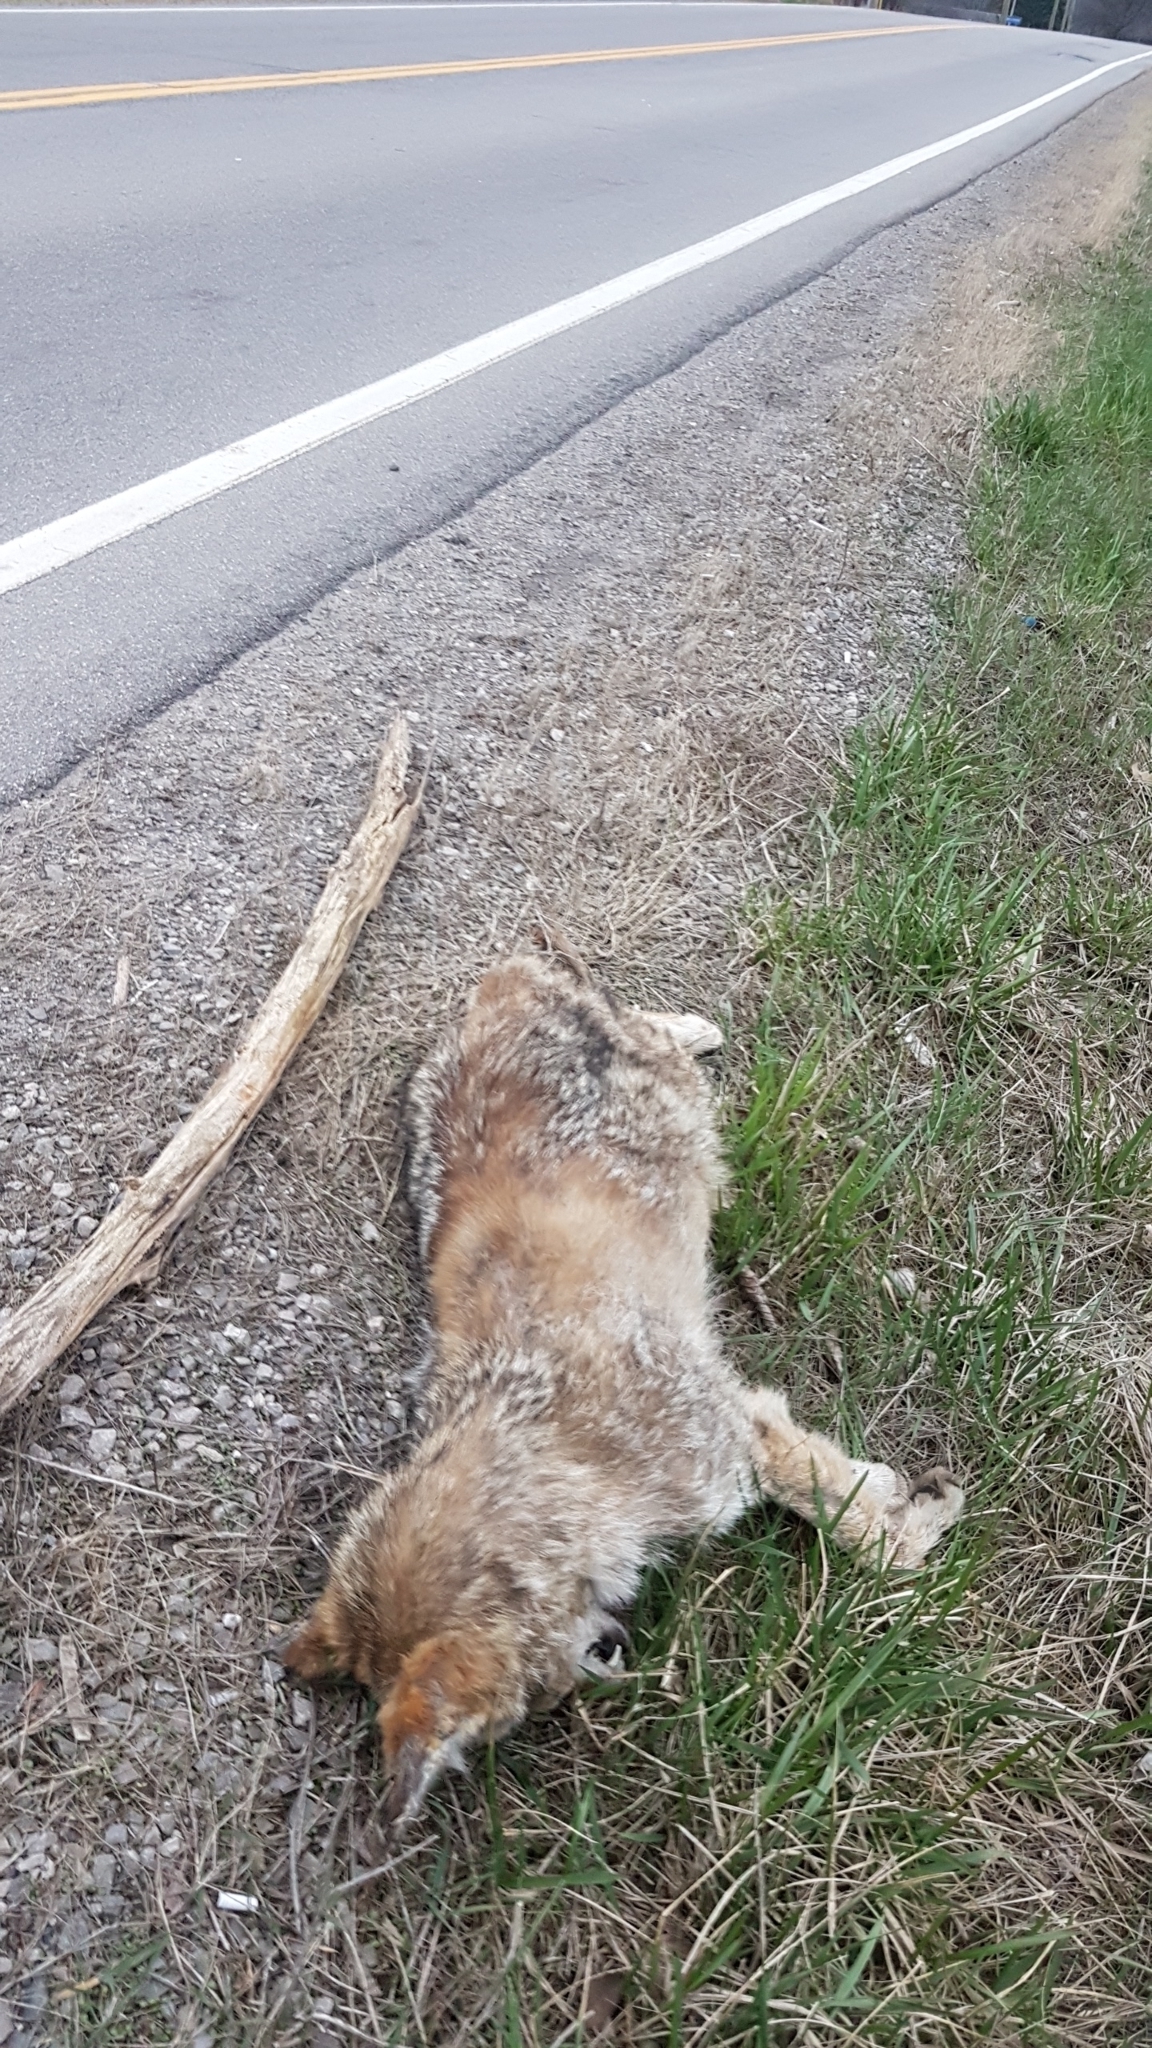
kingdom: Animalia
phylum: Chordata
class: Mammalia
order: Carnivora
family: Canidae
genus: Canis
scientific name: Canis latrans
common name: Coyote
